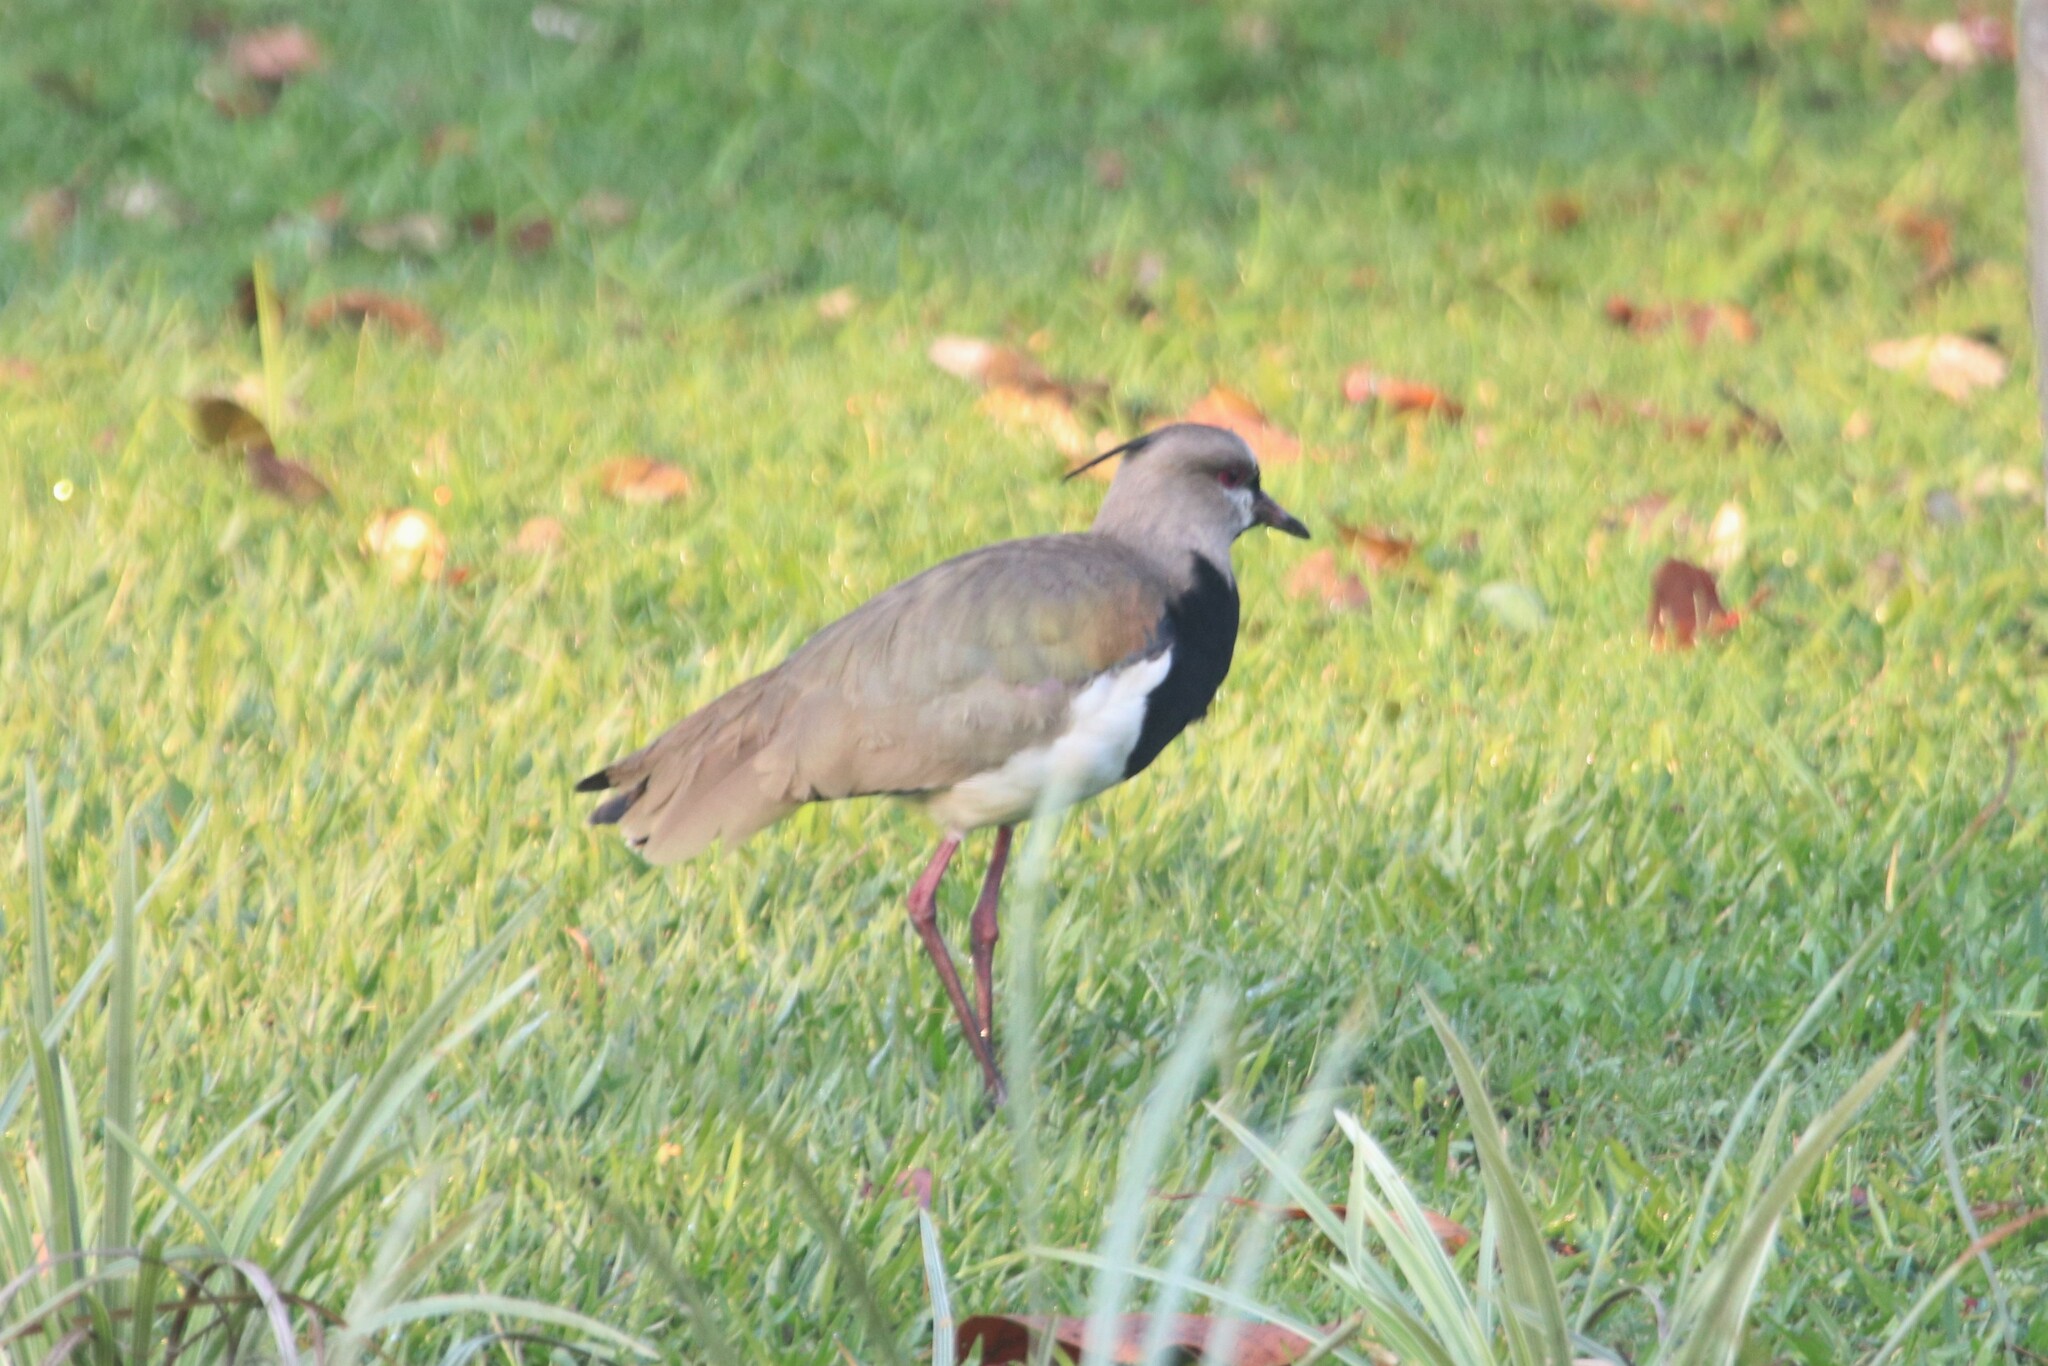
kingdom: Animalia
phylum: Chordata
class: Aves
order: Charadriiformes
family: Charadriidae
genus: Vanellus
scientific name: Vanellus chilensis
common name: Southern lapwing
